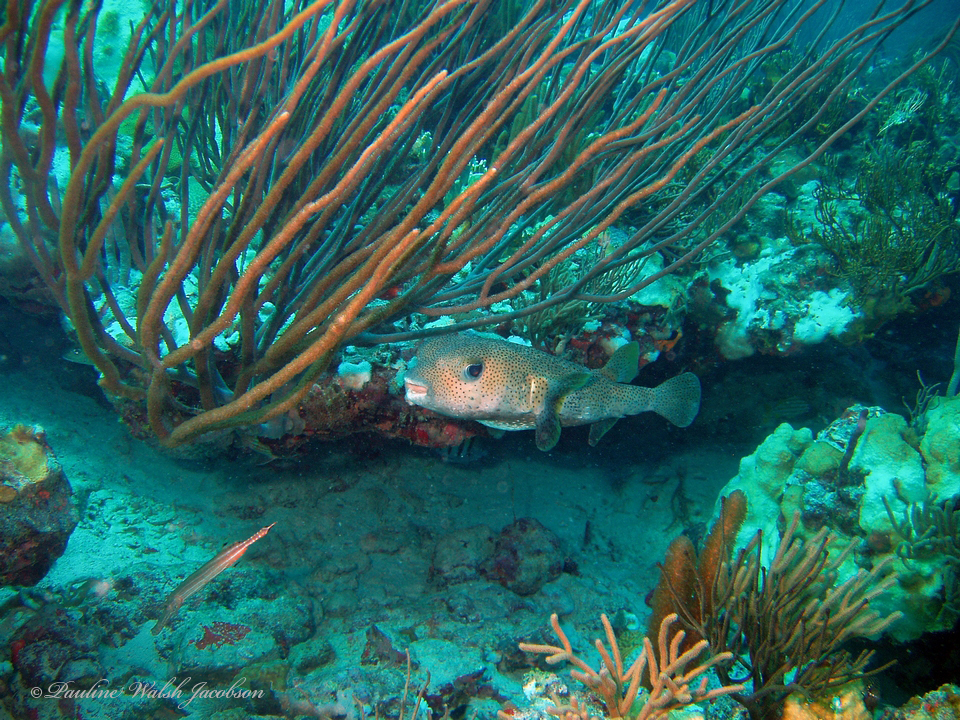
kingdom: Animalia
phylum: Chordata
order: Tetraodontiformes
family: Diodontidae
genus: Diodon
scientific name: Diodon hystrix
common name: Giant porcupinefish
